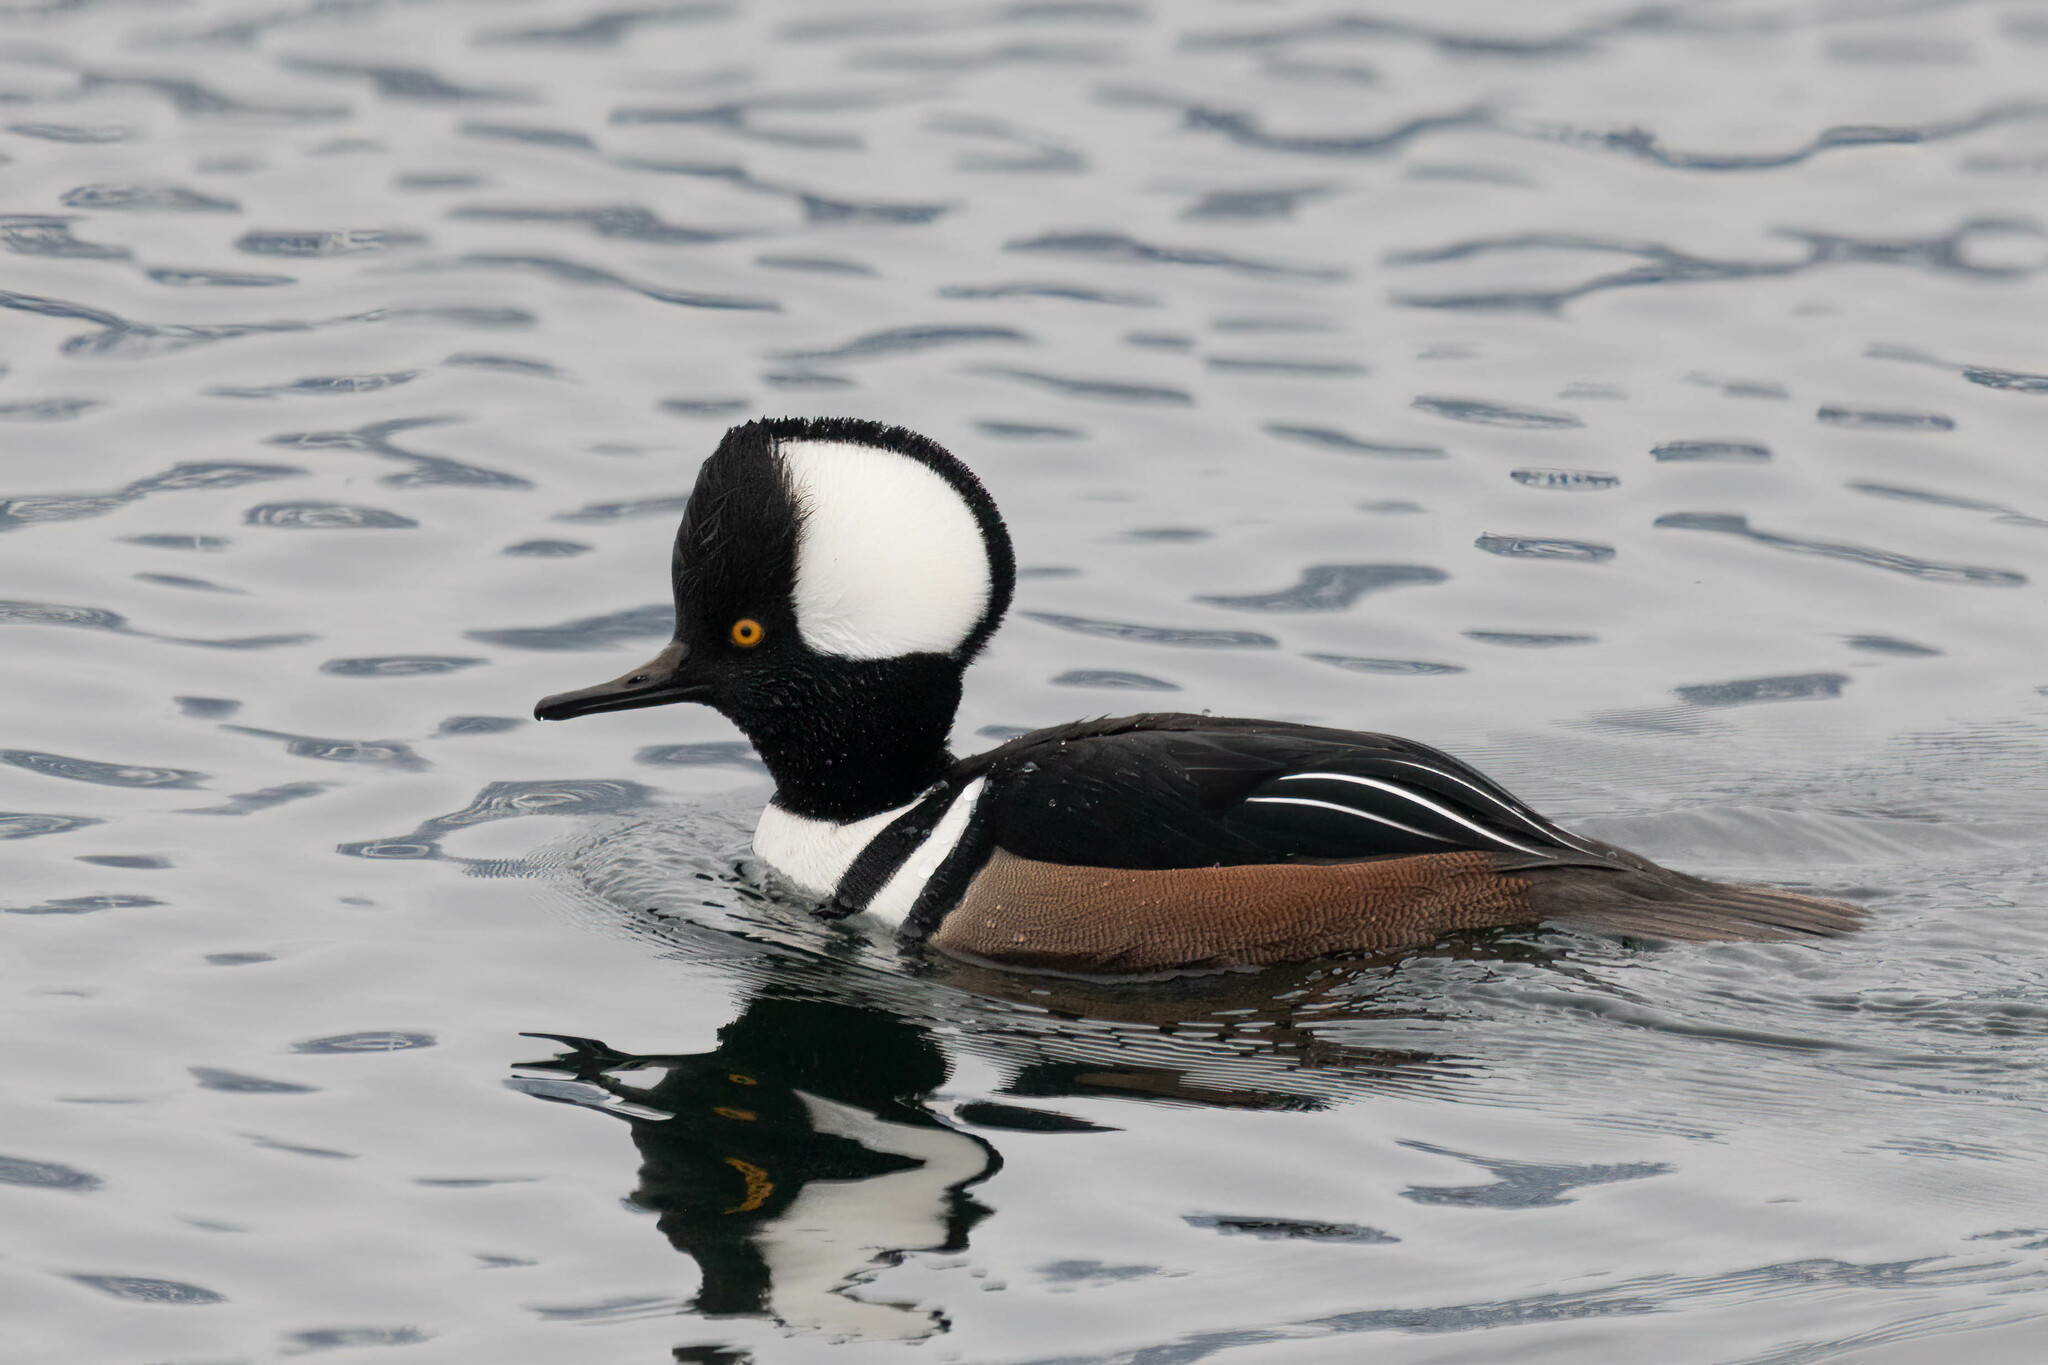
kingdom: Animalia
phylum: Chordata
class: Aves
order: Anseriformes
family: Anatidae
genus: Lophodytes
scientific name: Lophodytes cucullatus
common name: Hooded merganser
